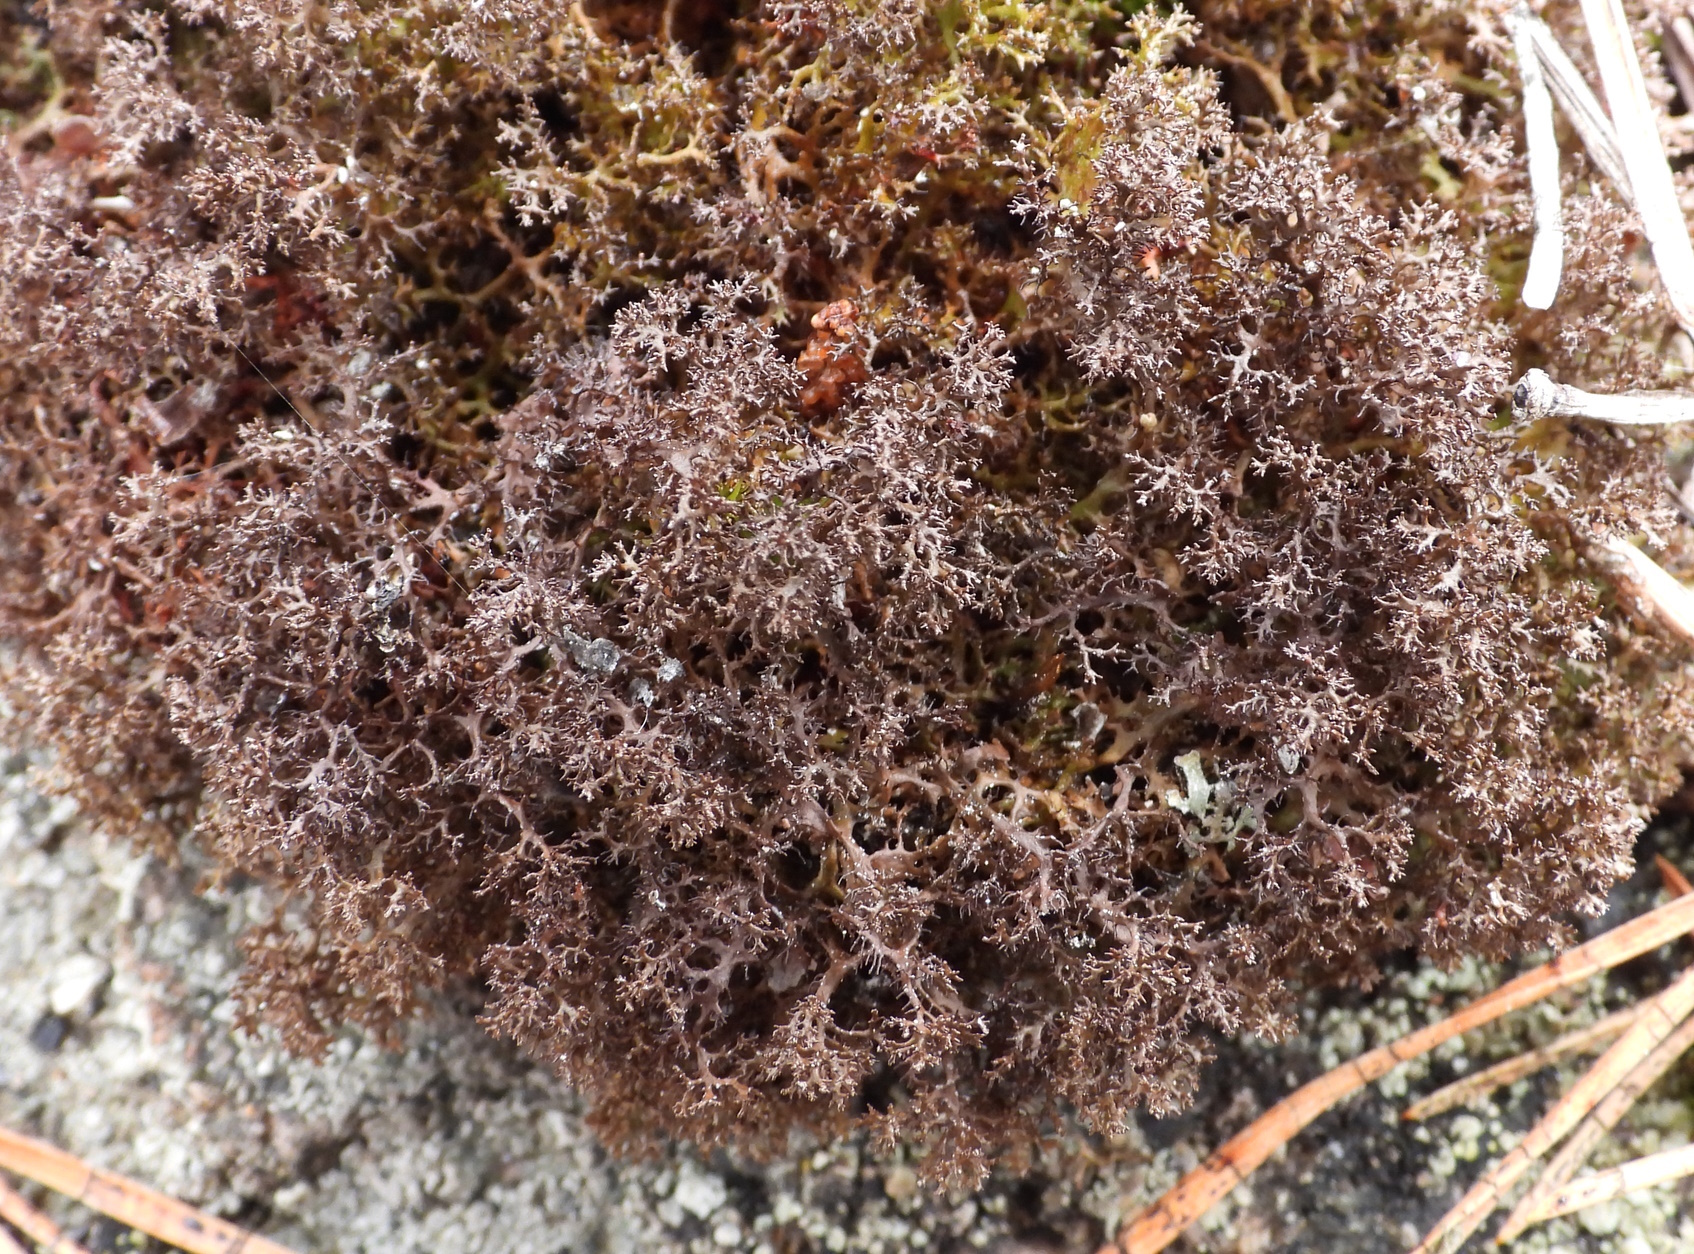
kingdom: Fungi
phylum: Ascomycota
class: Lecanoromycetes
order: Lecanorales
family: Parmeliaceae
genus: Cetraria
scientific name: Cetraria odontella
